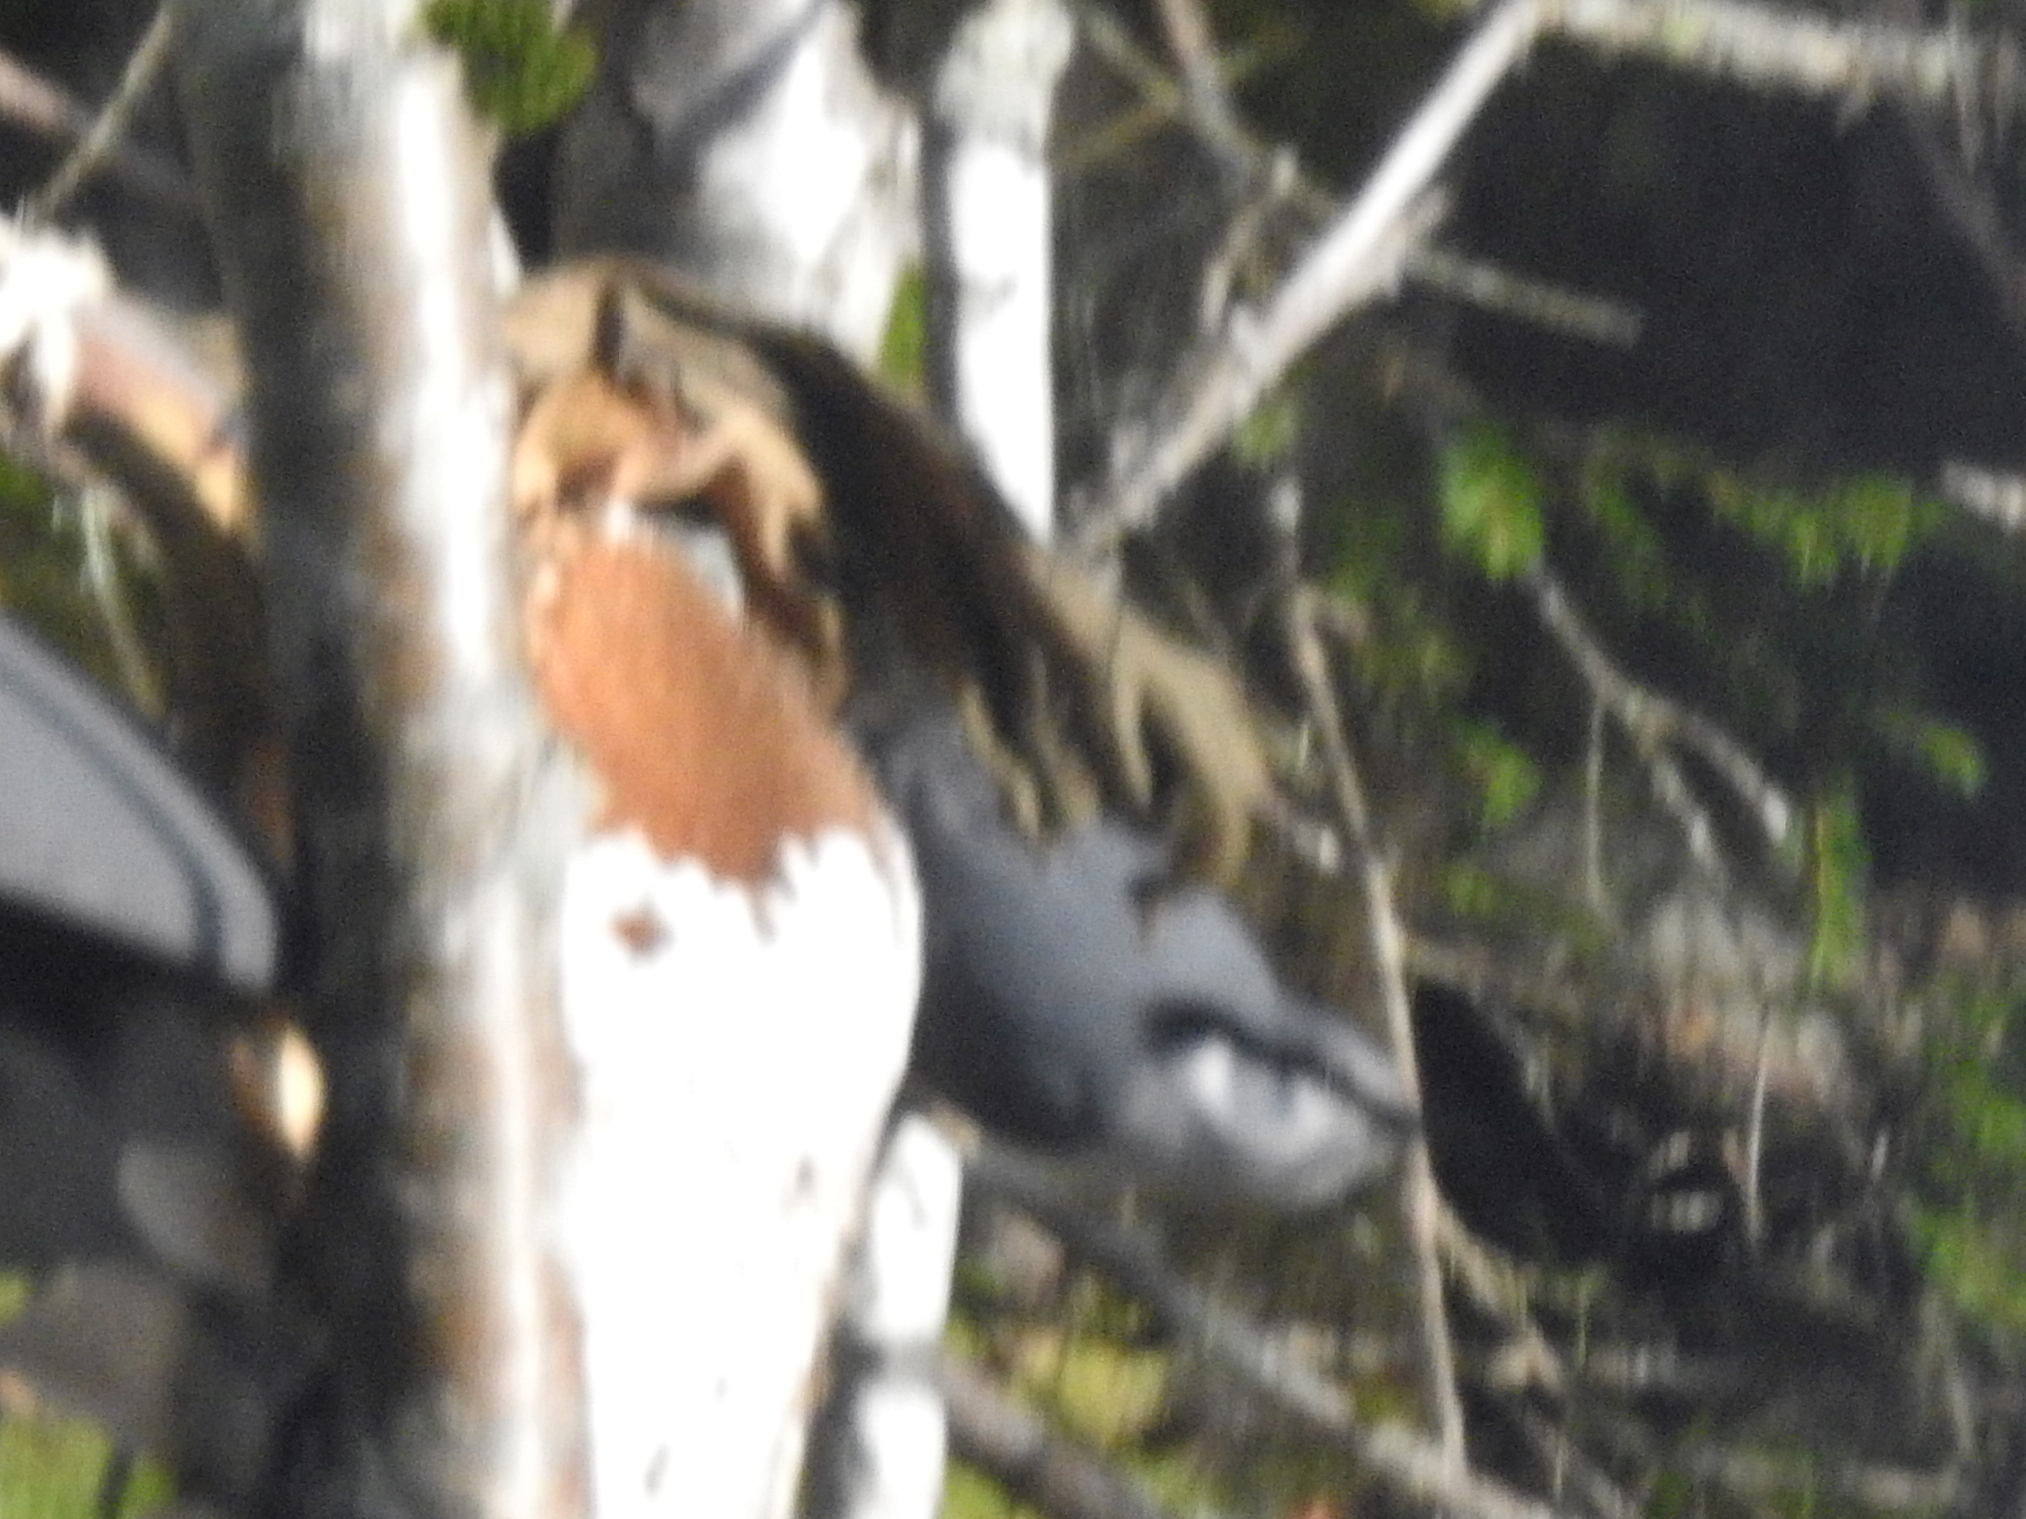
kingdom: Animalia
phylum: Chordata
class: Aves
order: Passeriformes
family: Sittidae
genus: Sitta
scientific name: Sitta europaea
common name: Eurasian nuthatch
